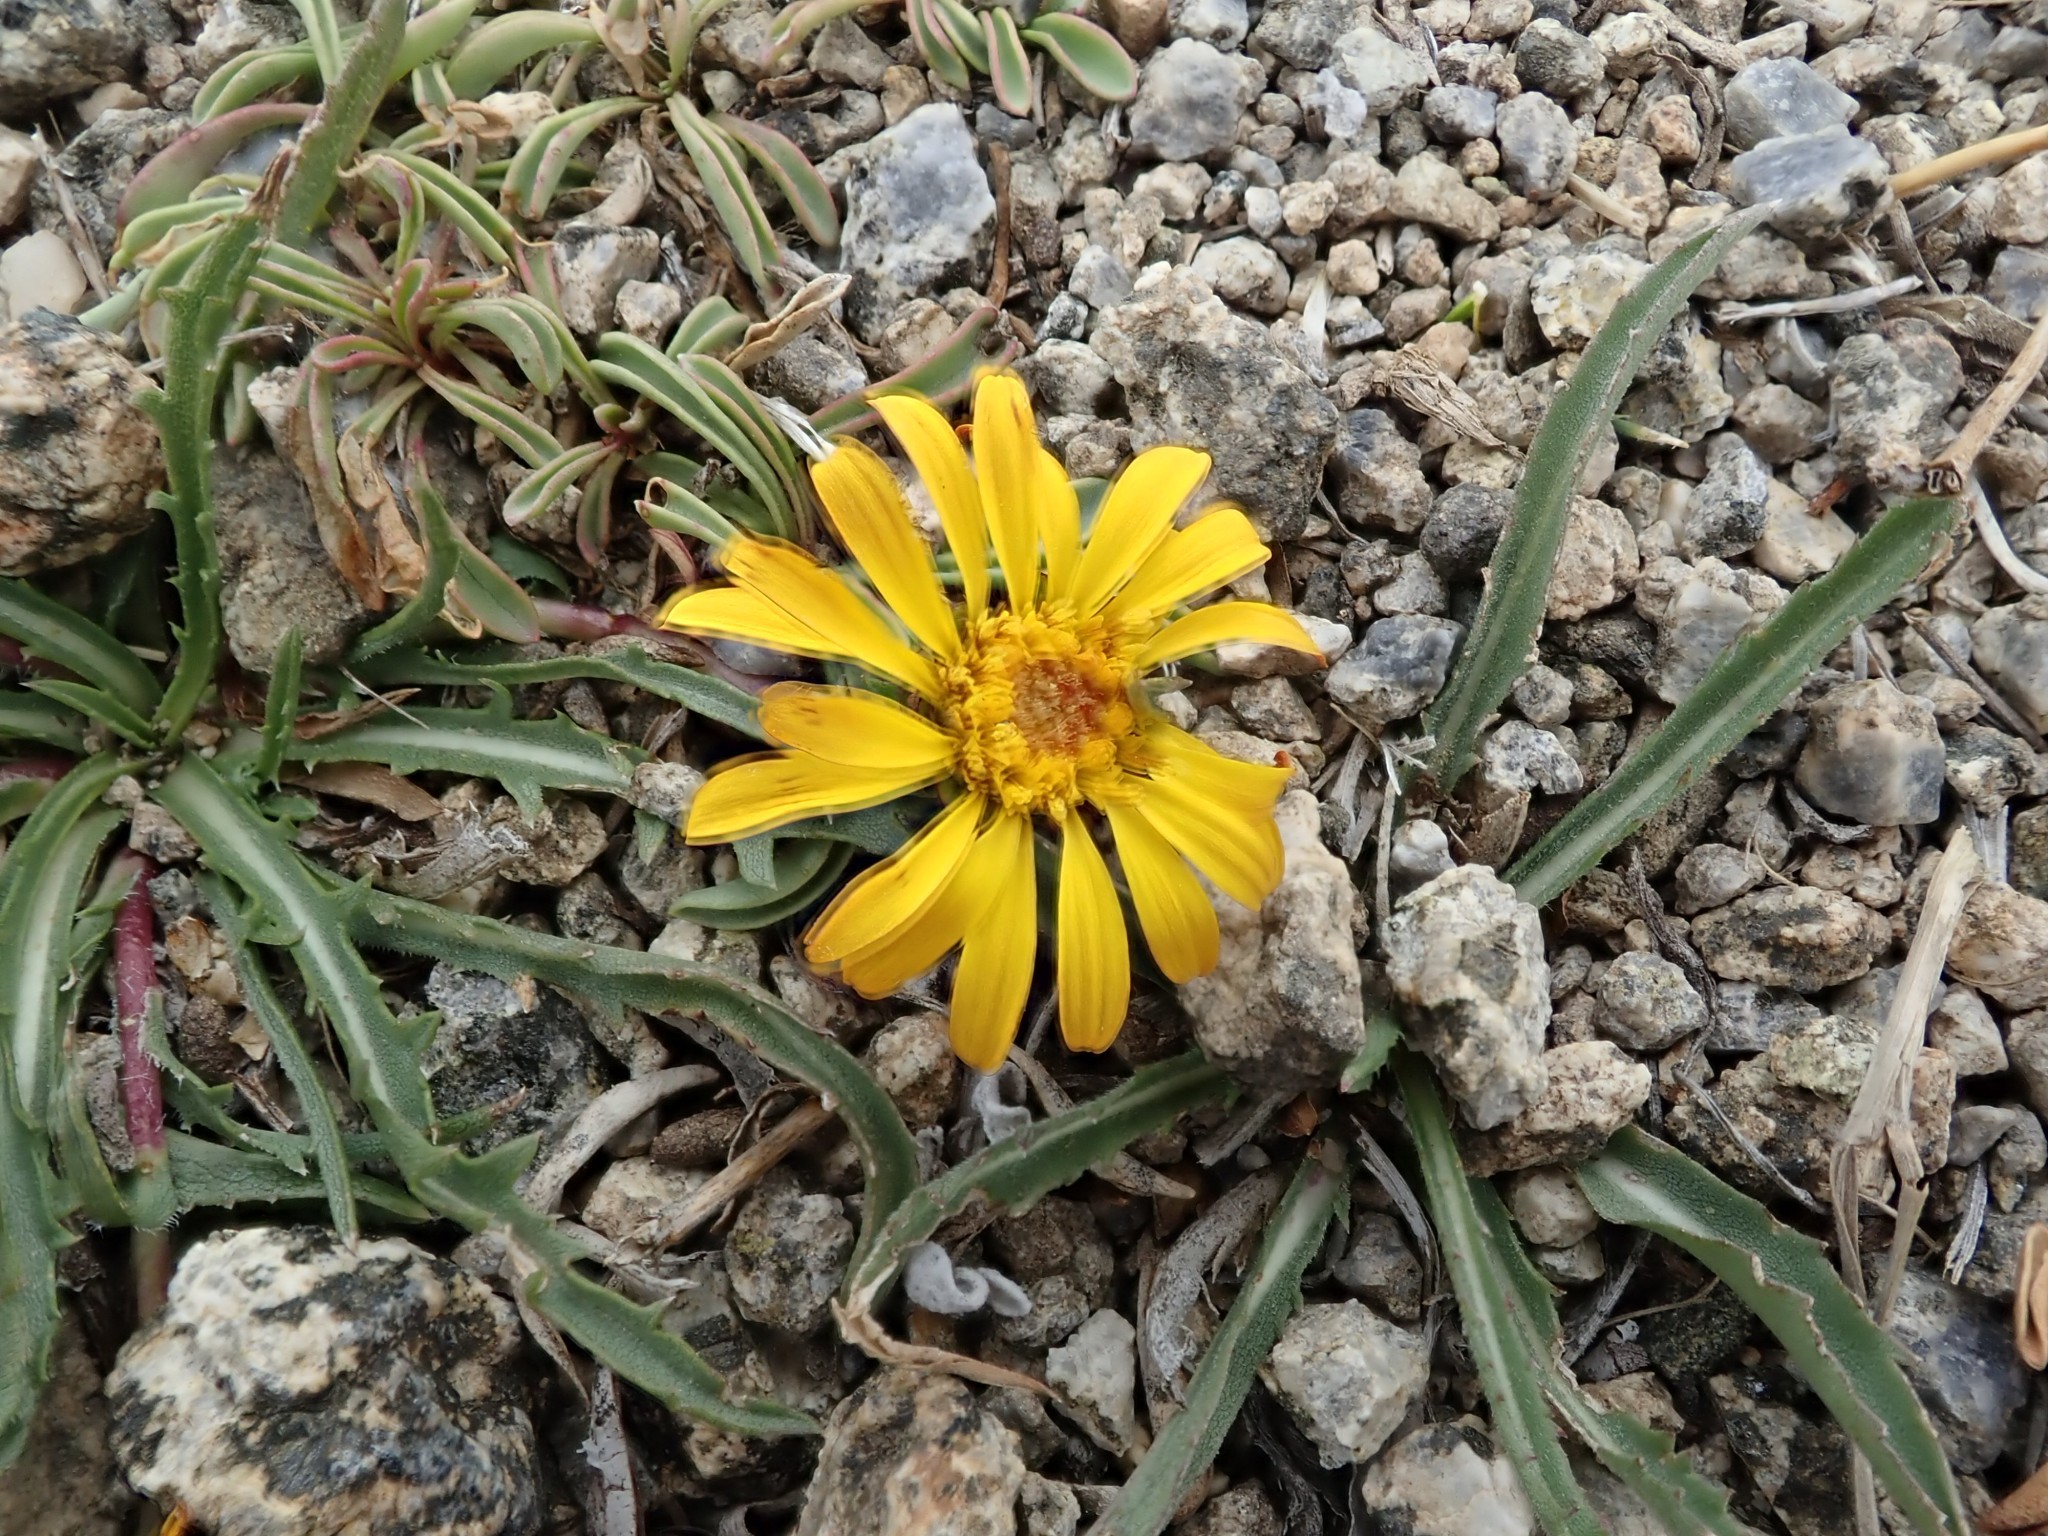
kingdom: Plantae
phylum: Tracheophyta
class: Magnoliopsida
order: Asterales
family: Asteraceae
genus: Pyrrocoma
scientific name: Pyrrocoma apargioides
